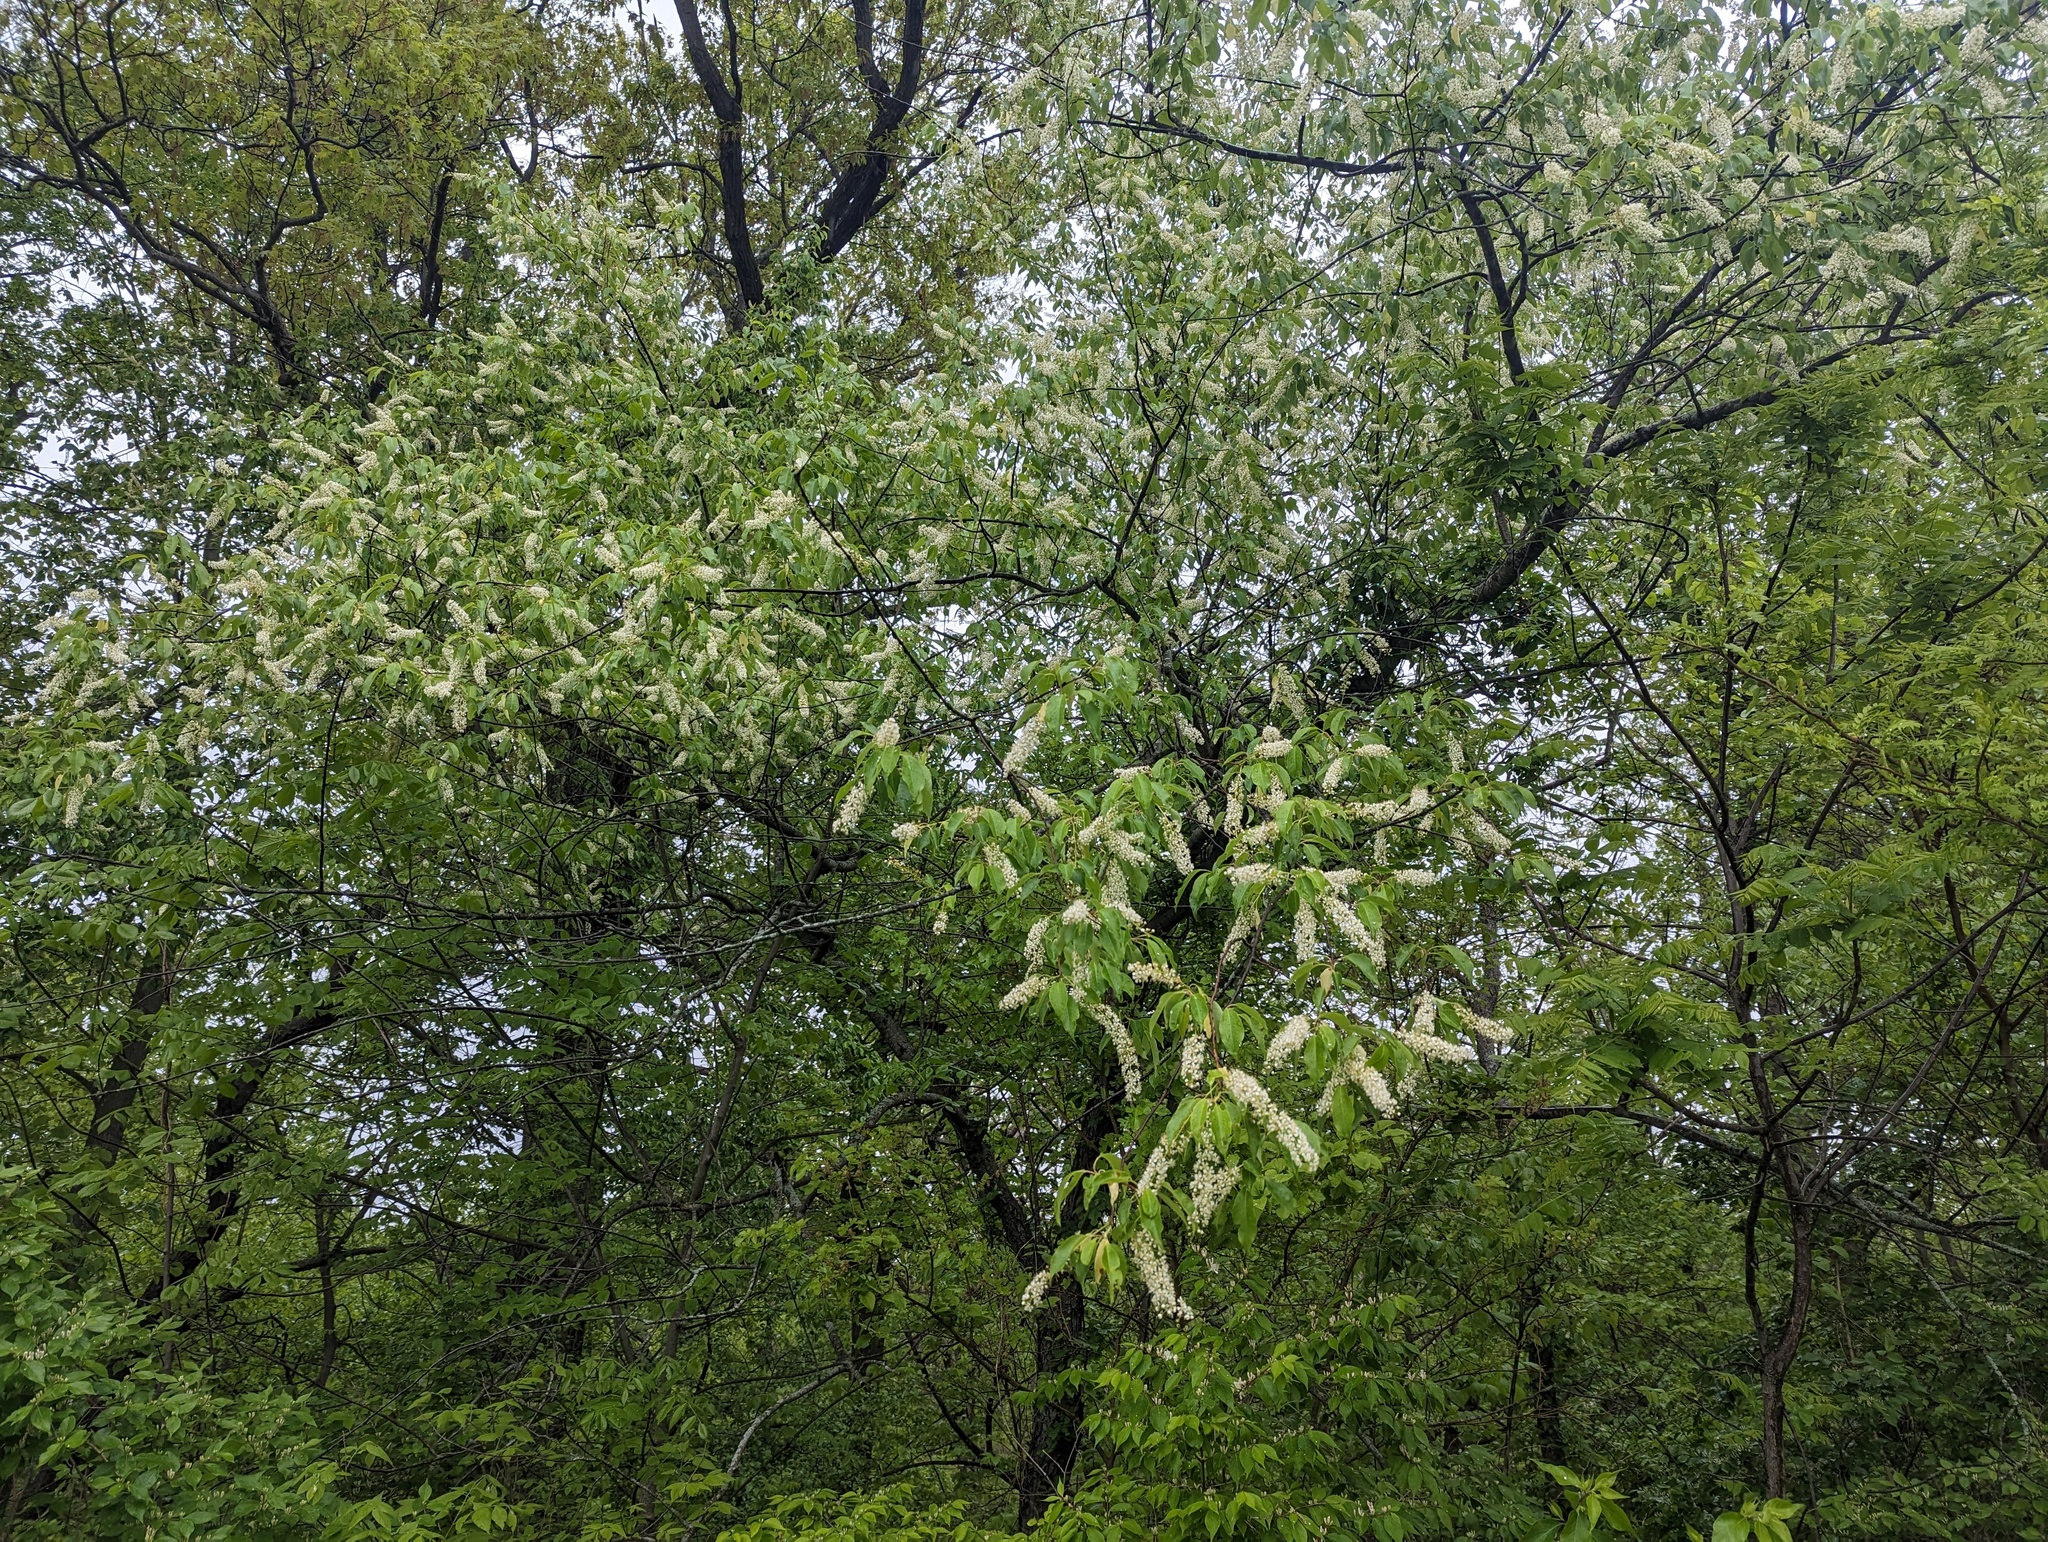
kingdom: Plantae
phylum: Tracheophyta
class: Magnoliopsida
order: Rosales
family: Rosaceae
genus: Prunus
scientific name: Prunus serotina
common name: Black cherry
